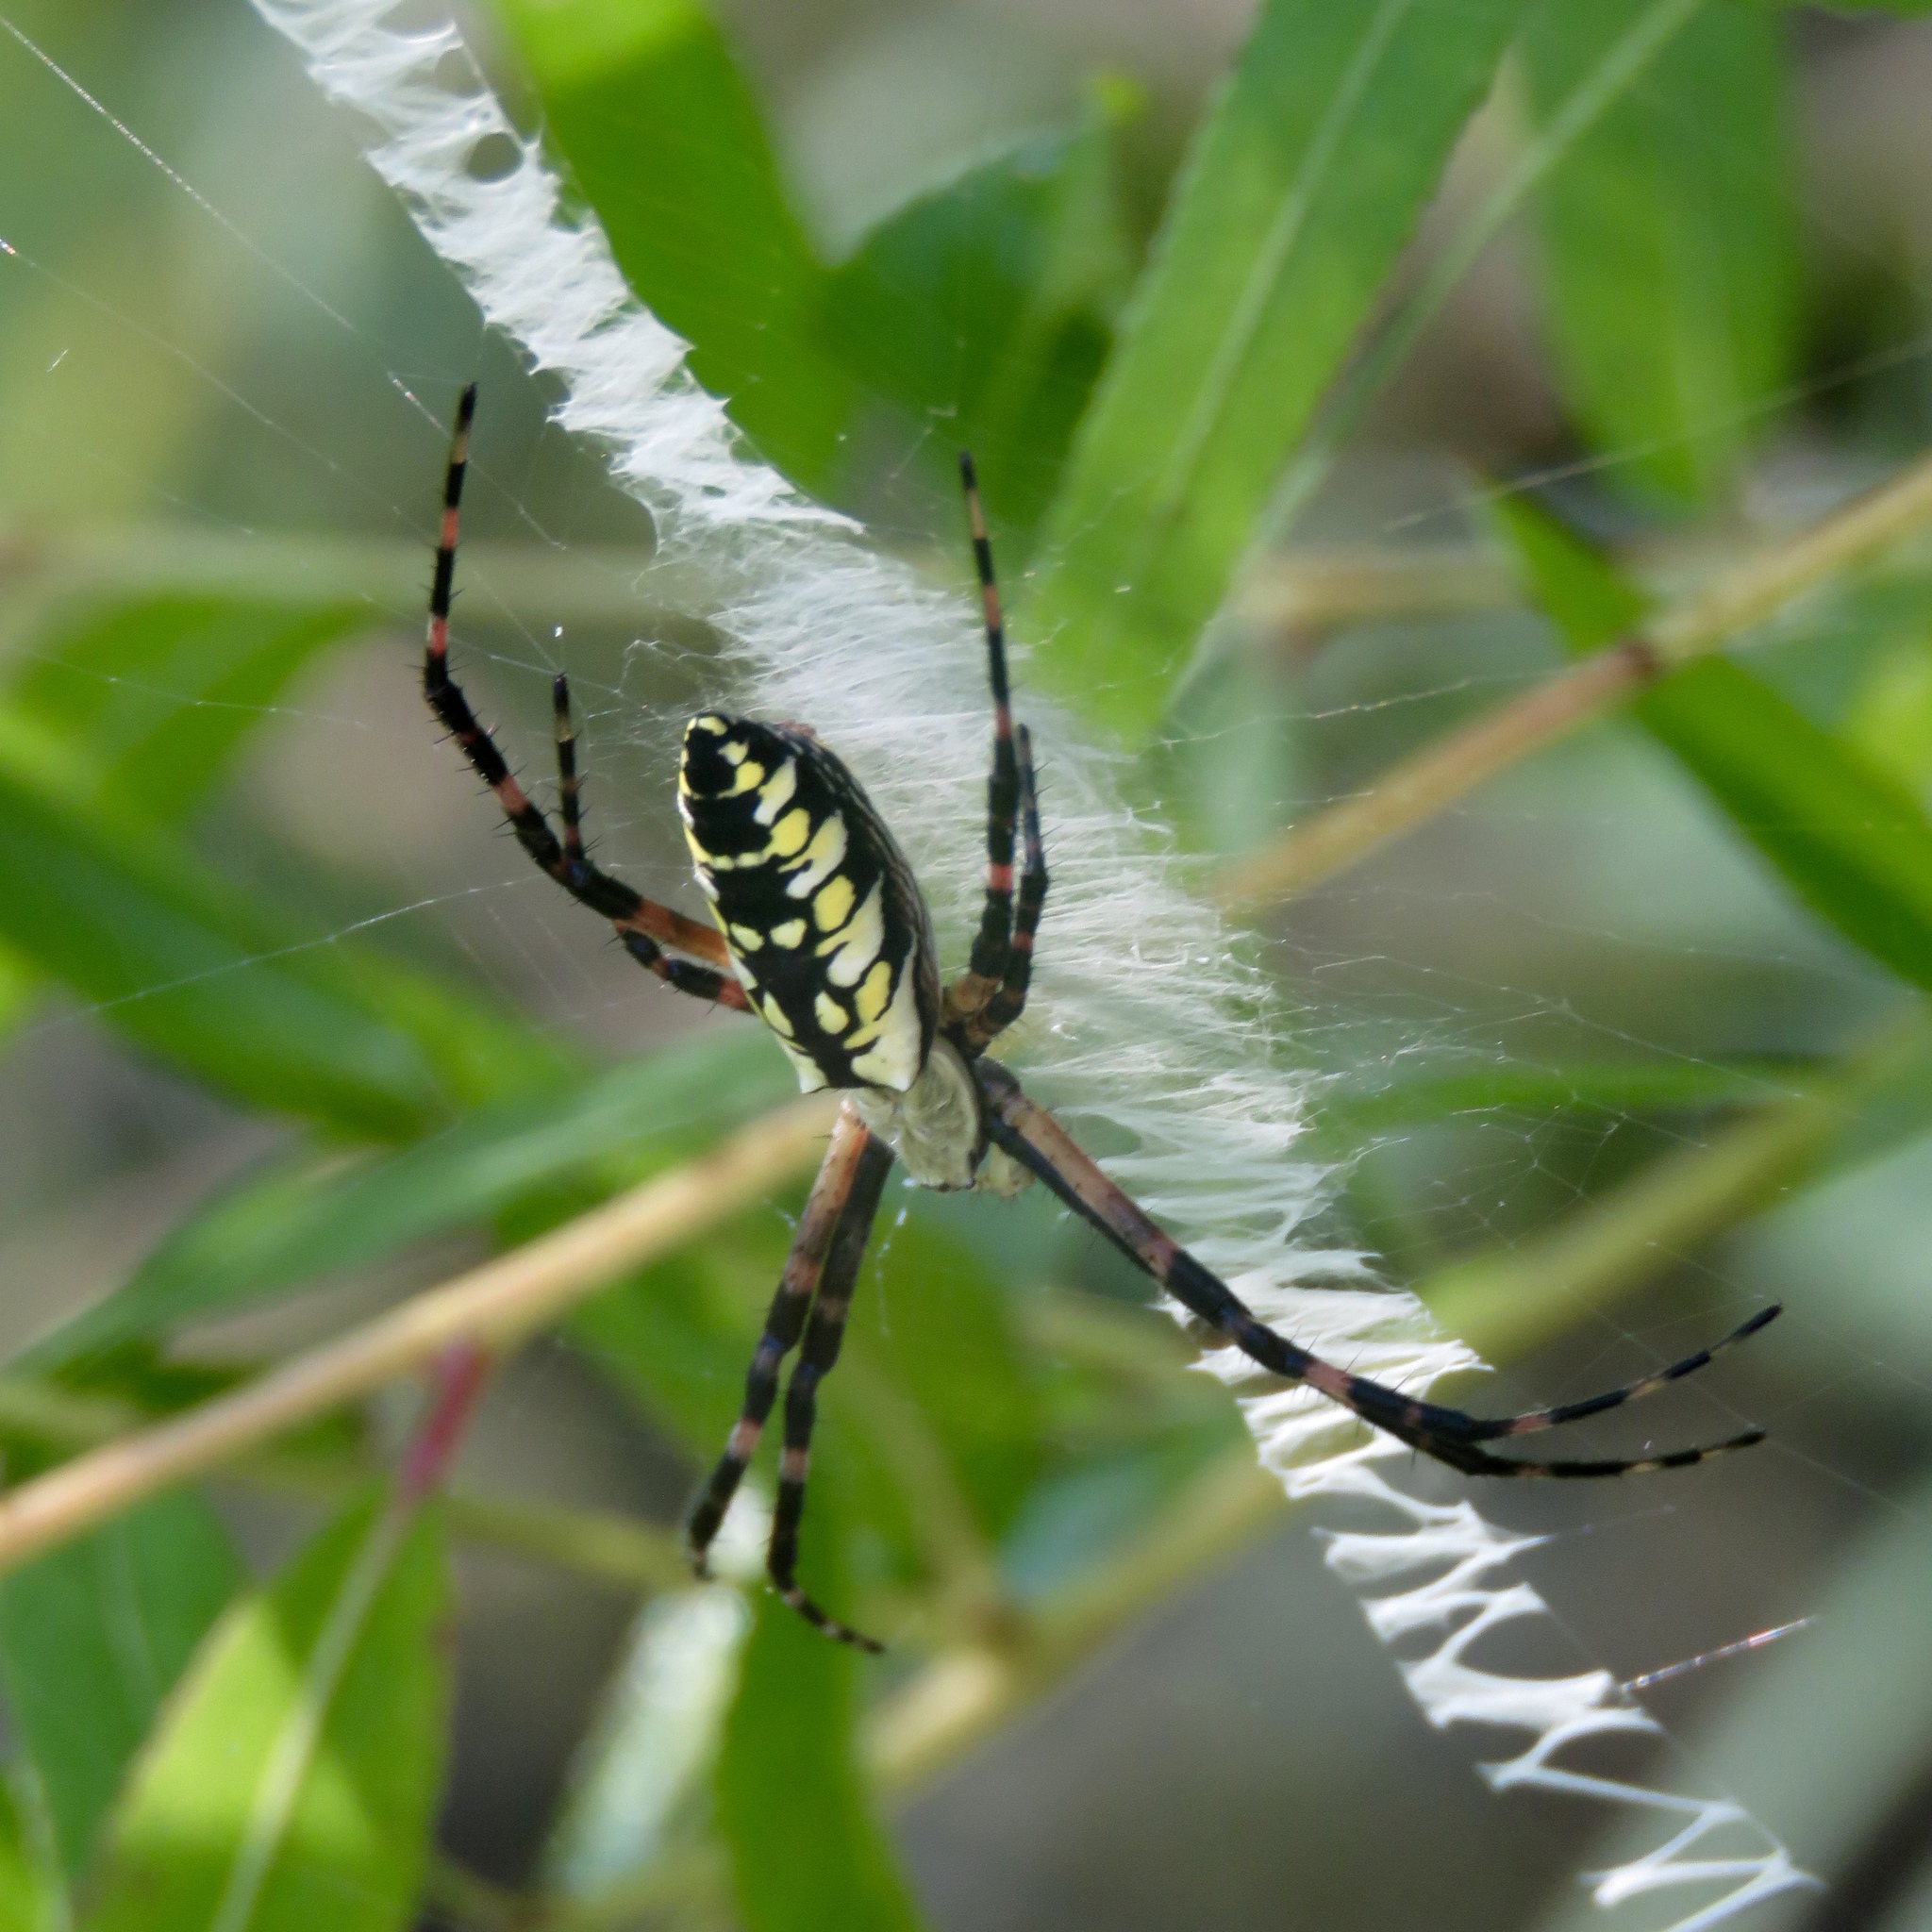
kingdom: Animalia
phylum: Arthropoda
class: Arachnida
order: Araneae
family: Araneidae
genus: Argiope
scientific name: Argiope aurantia
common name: Orb weavers
